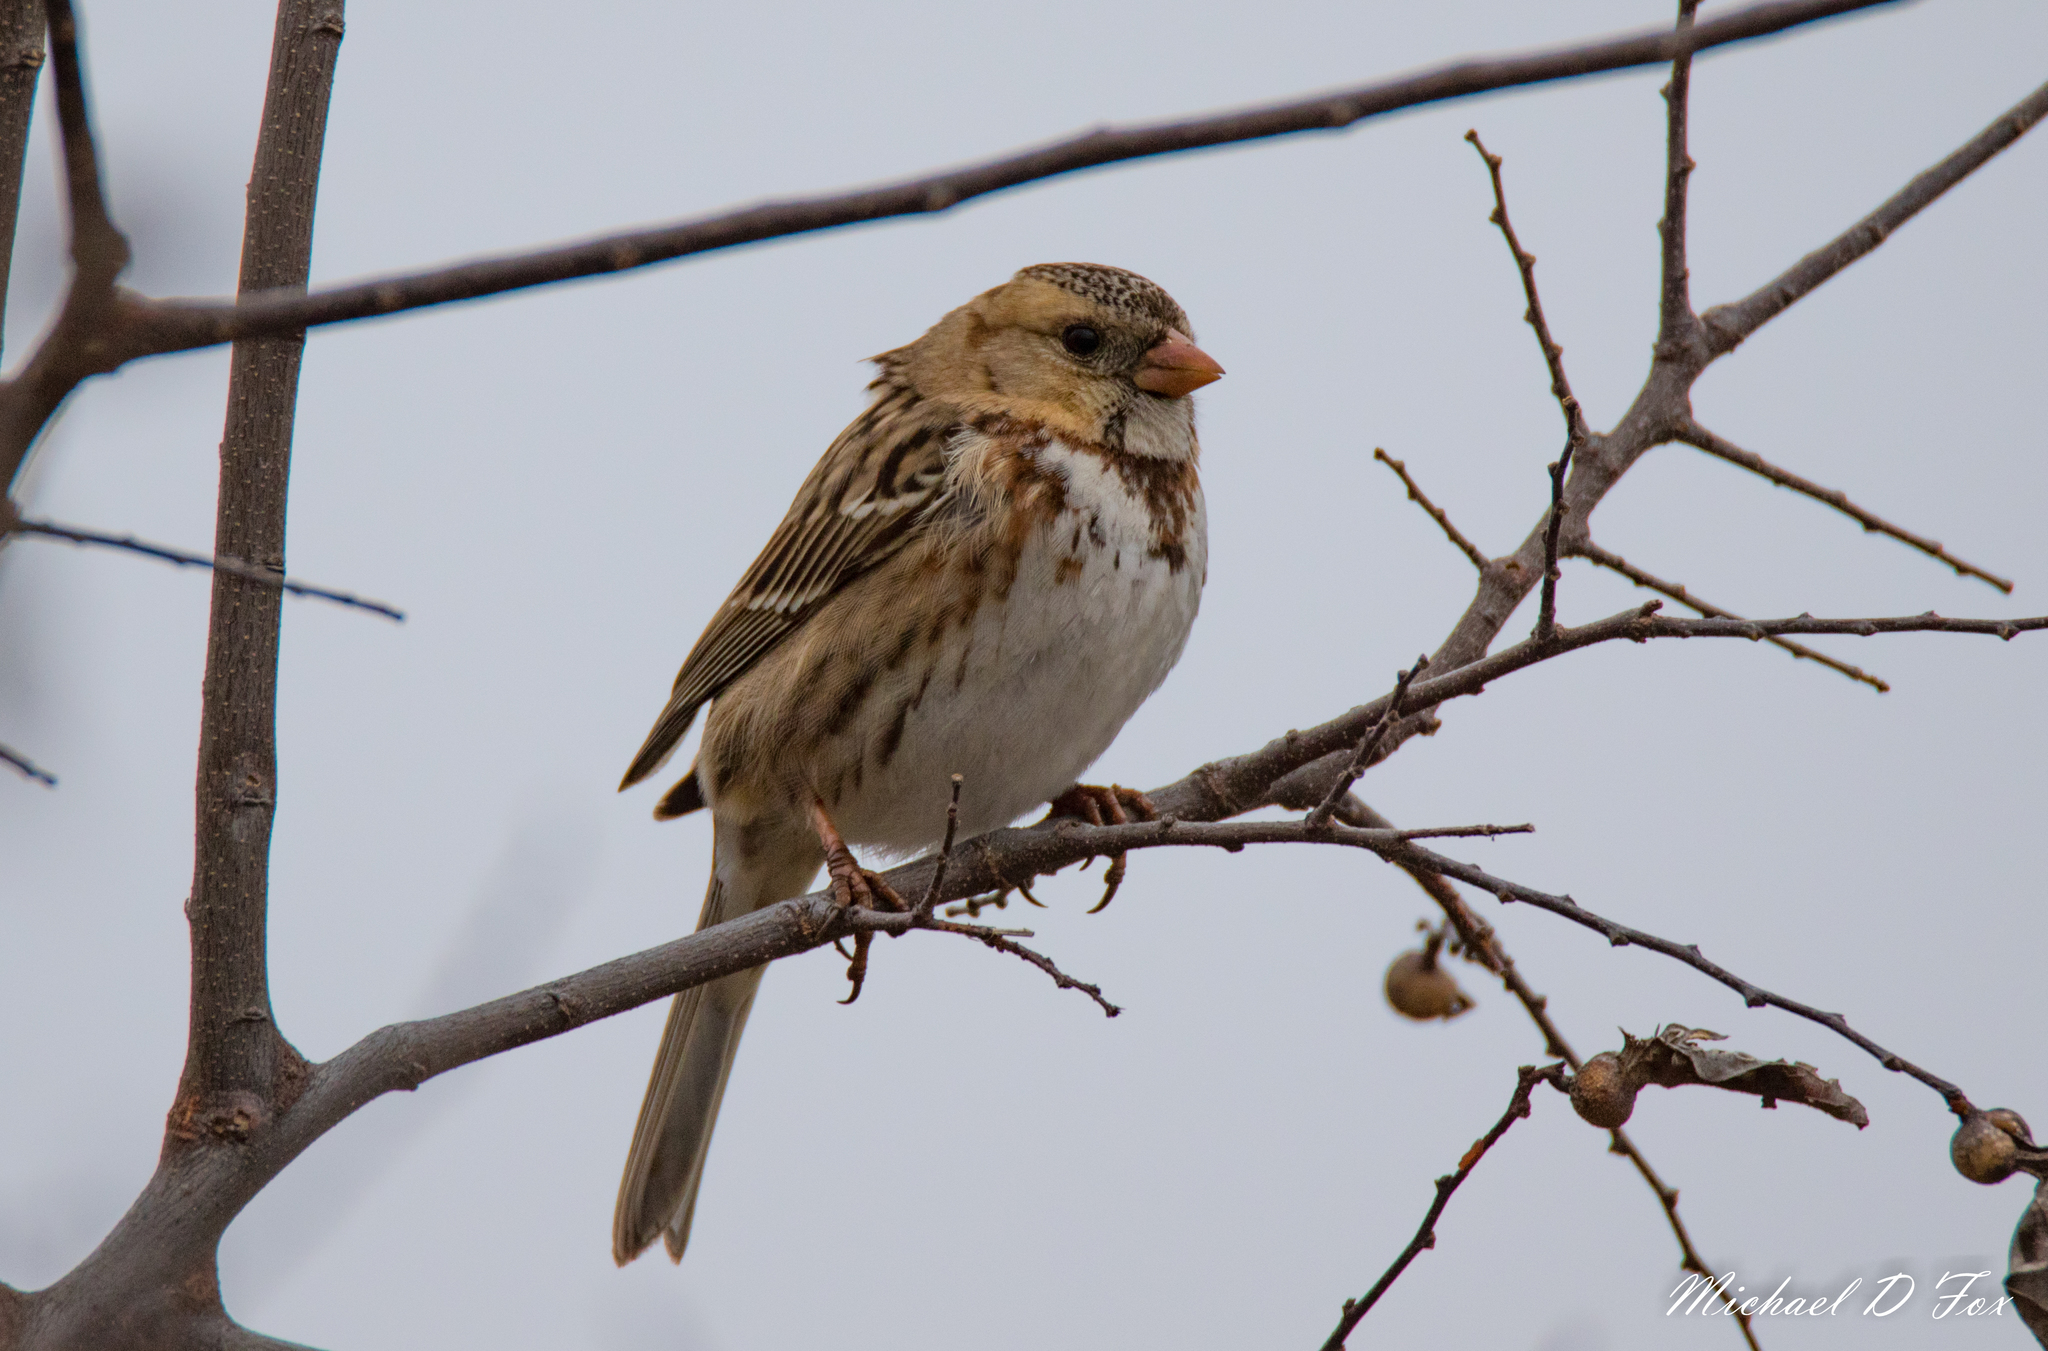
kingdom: Animalia
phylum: Chordata
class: Aves
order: Passeriformes
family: Passerellidae
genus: Zonotrichia
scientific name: Zonotrichia querula
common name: Harris's sparrow
